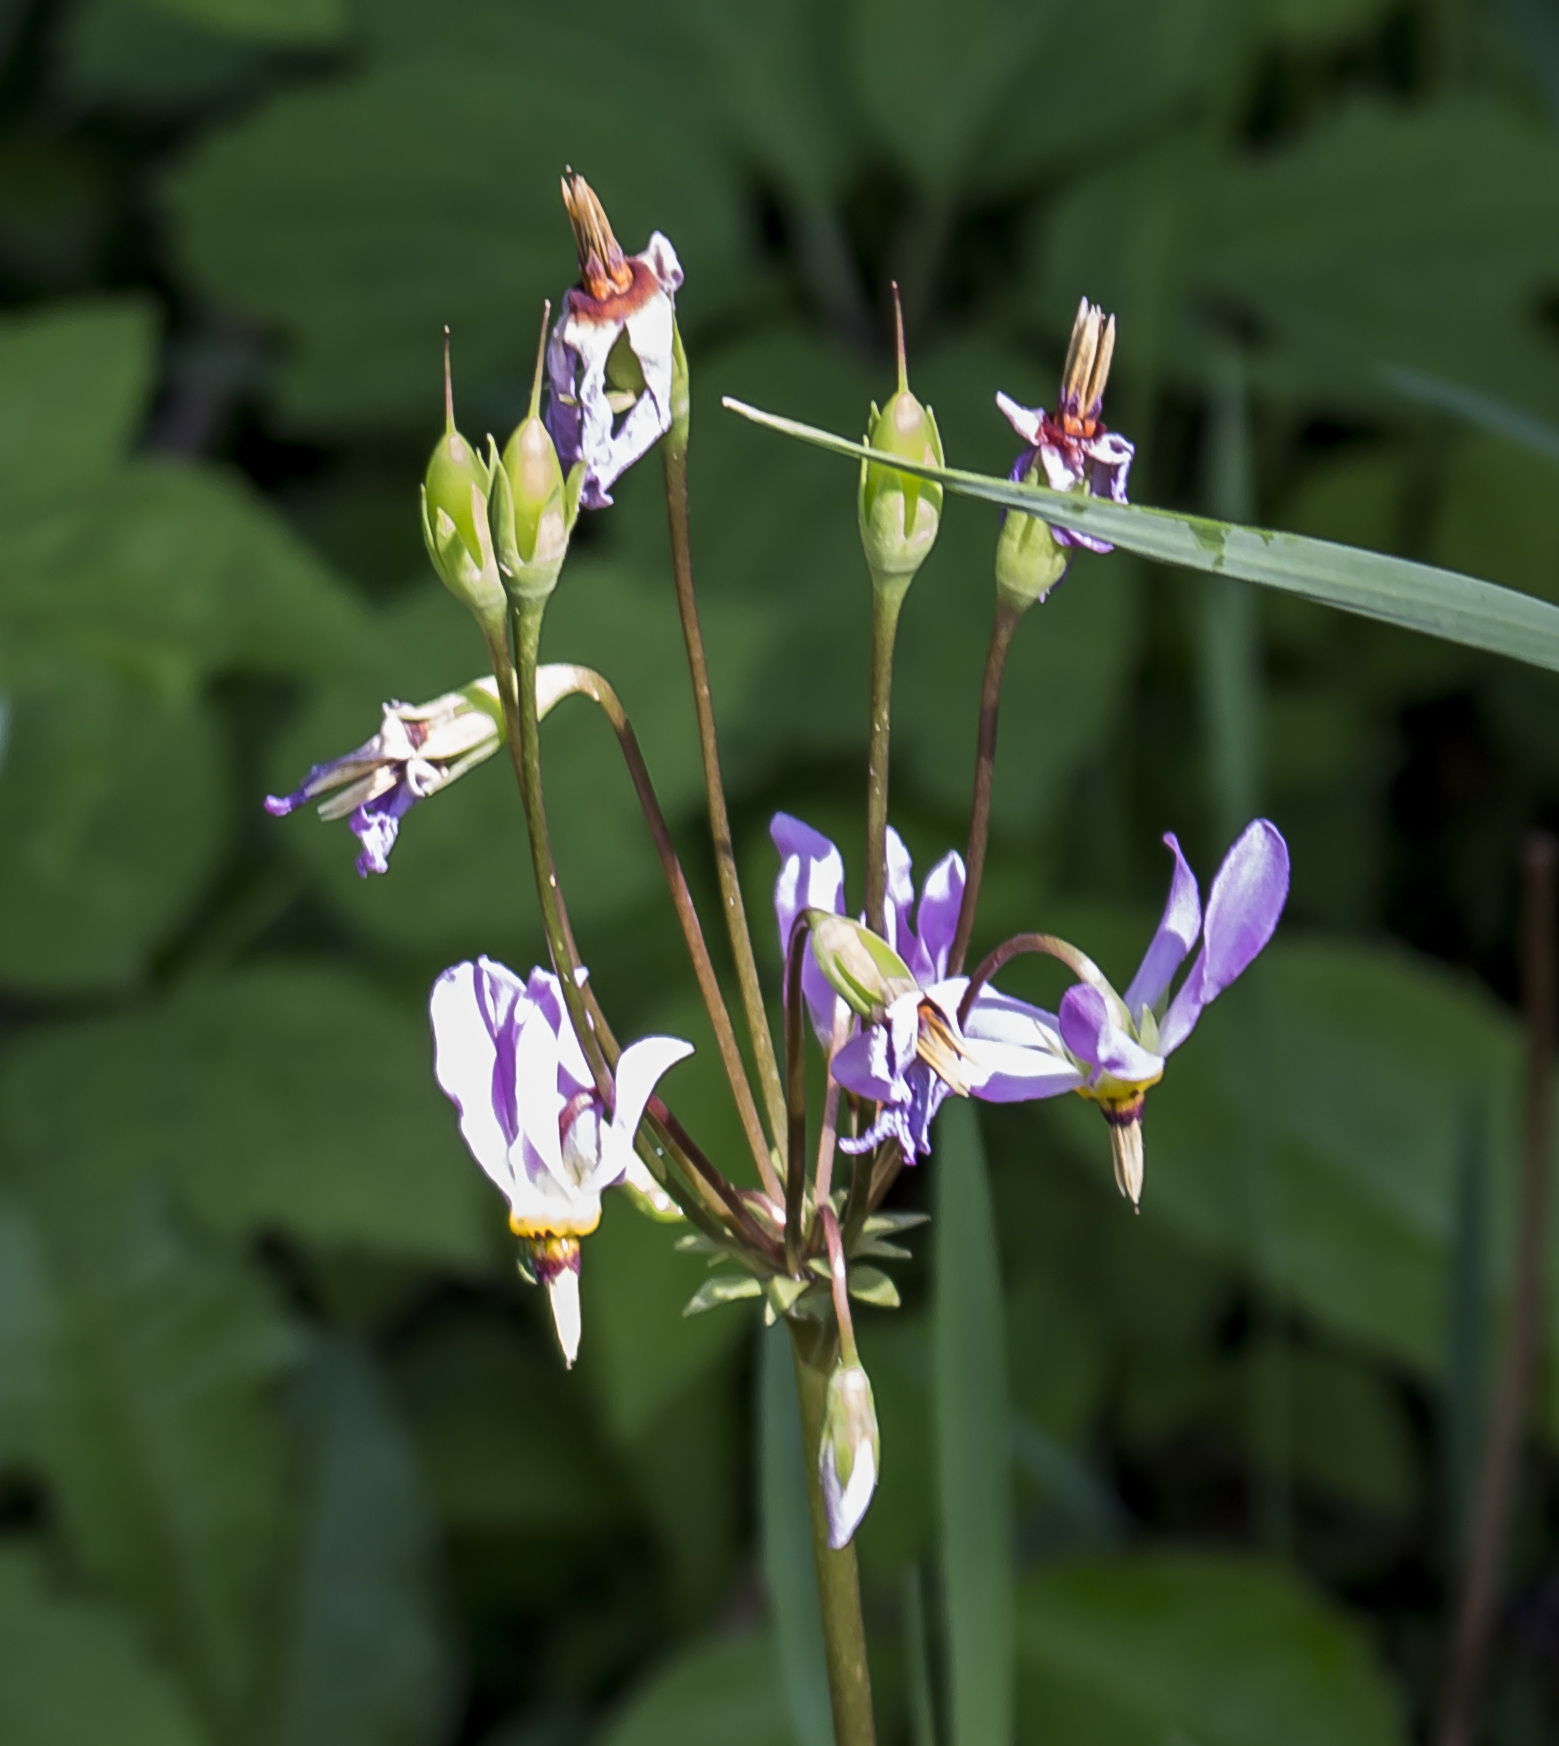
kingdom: Plantae
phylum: Tracheophyta
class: Magnoliopsida
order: Ericales
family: Primulaceae
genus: Dodecatheon
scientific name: Dodecatheon meadia
